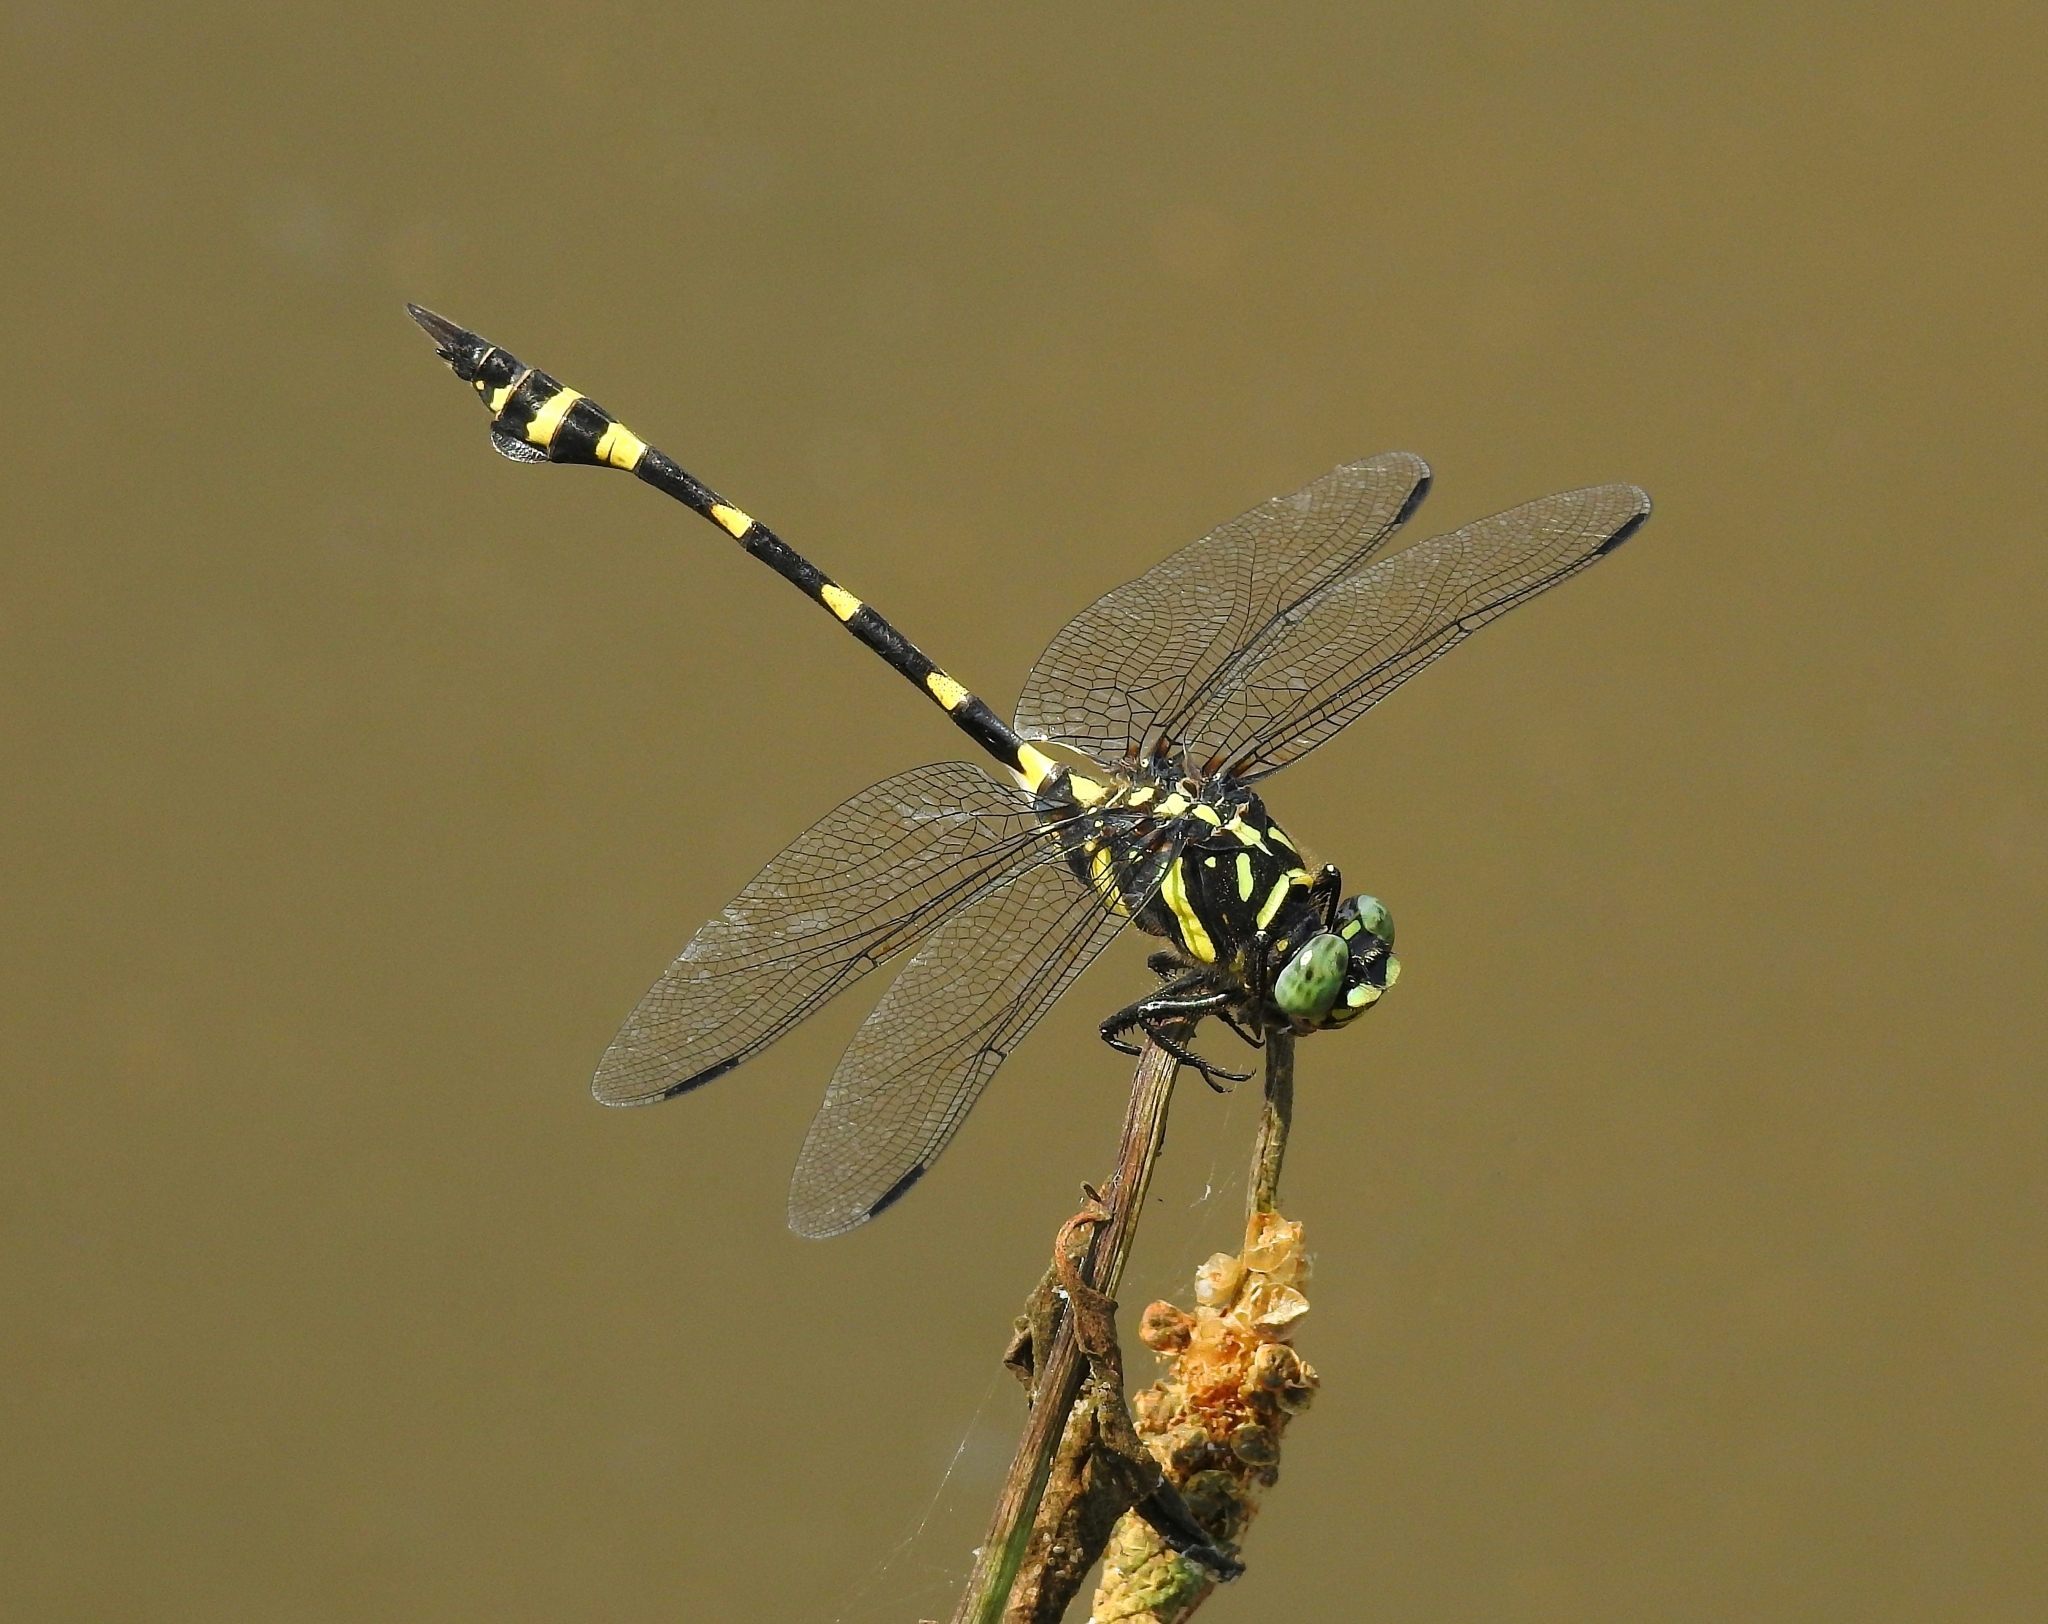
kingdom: Animalia
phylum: Arthropoda
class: Insecta
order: Odonata
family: Gomphidae
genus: Ictinogomphus
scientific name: Ictinogomphus rapax
